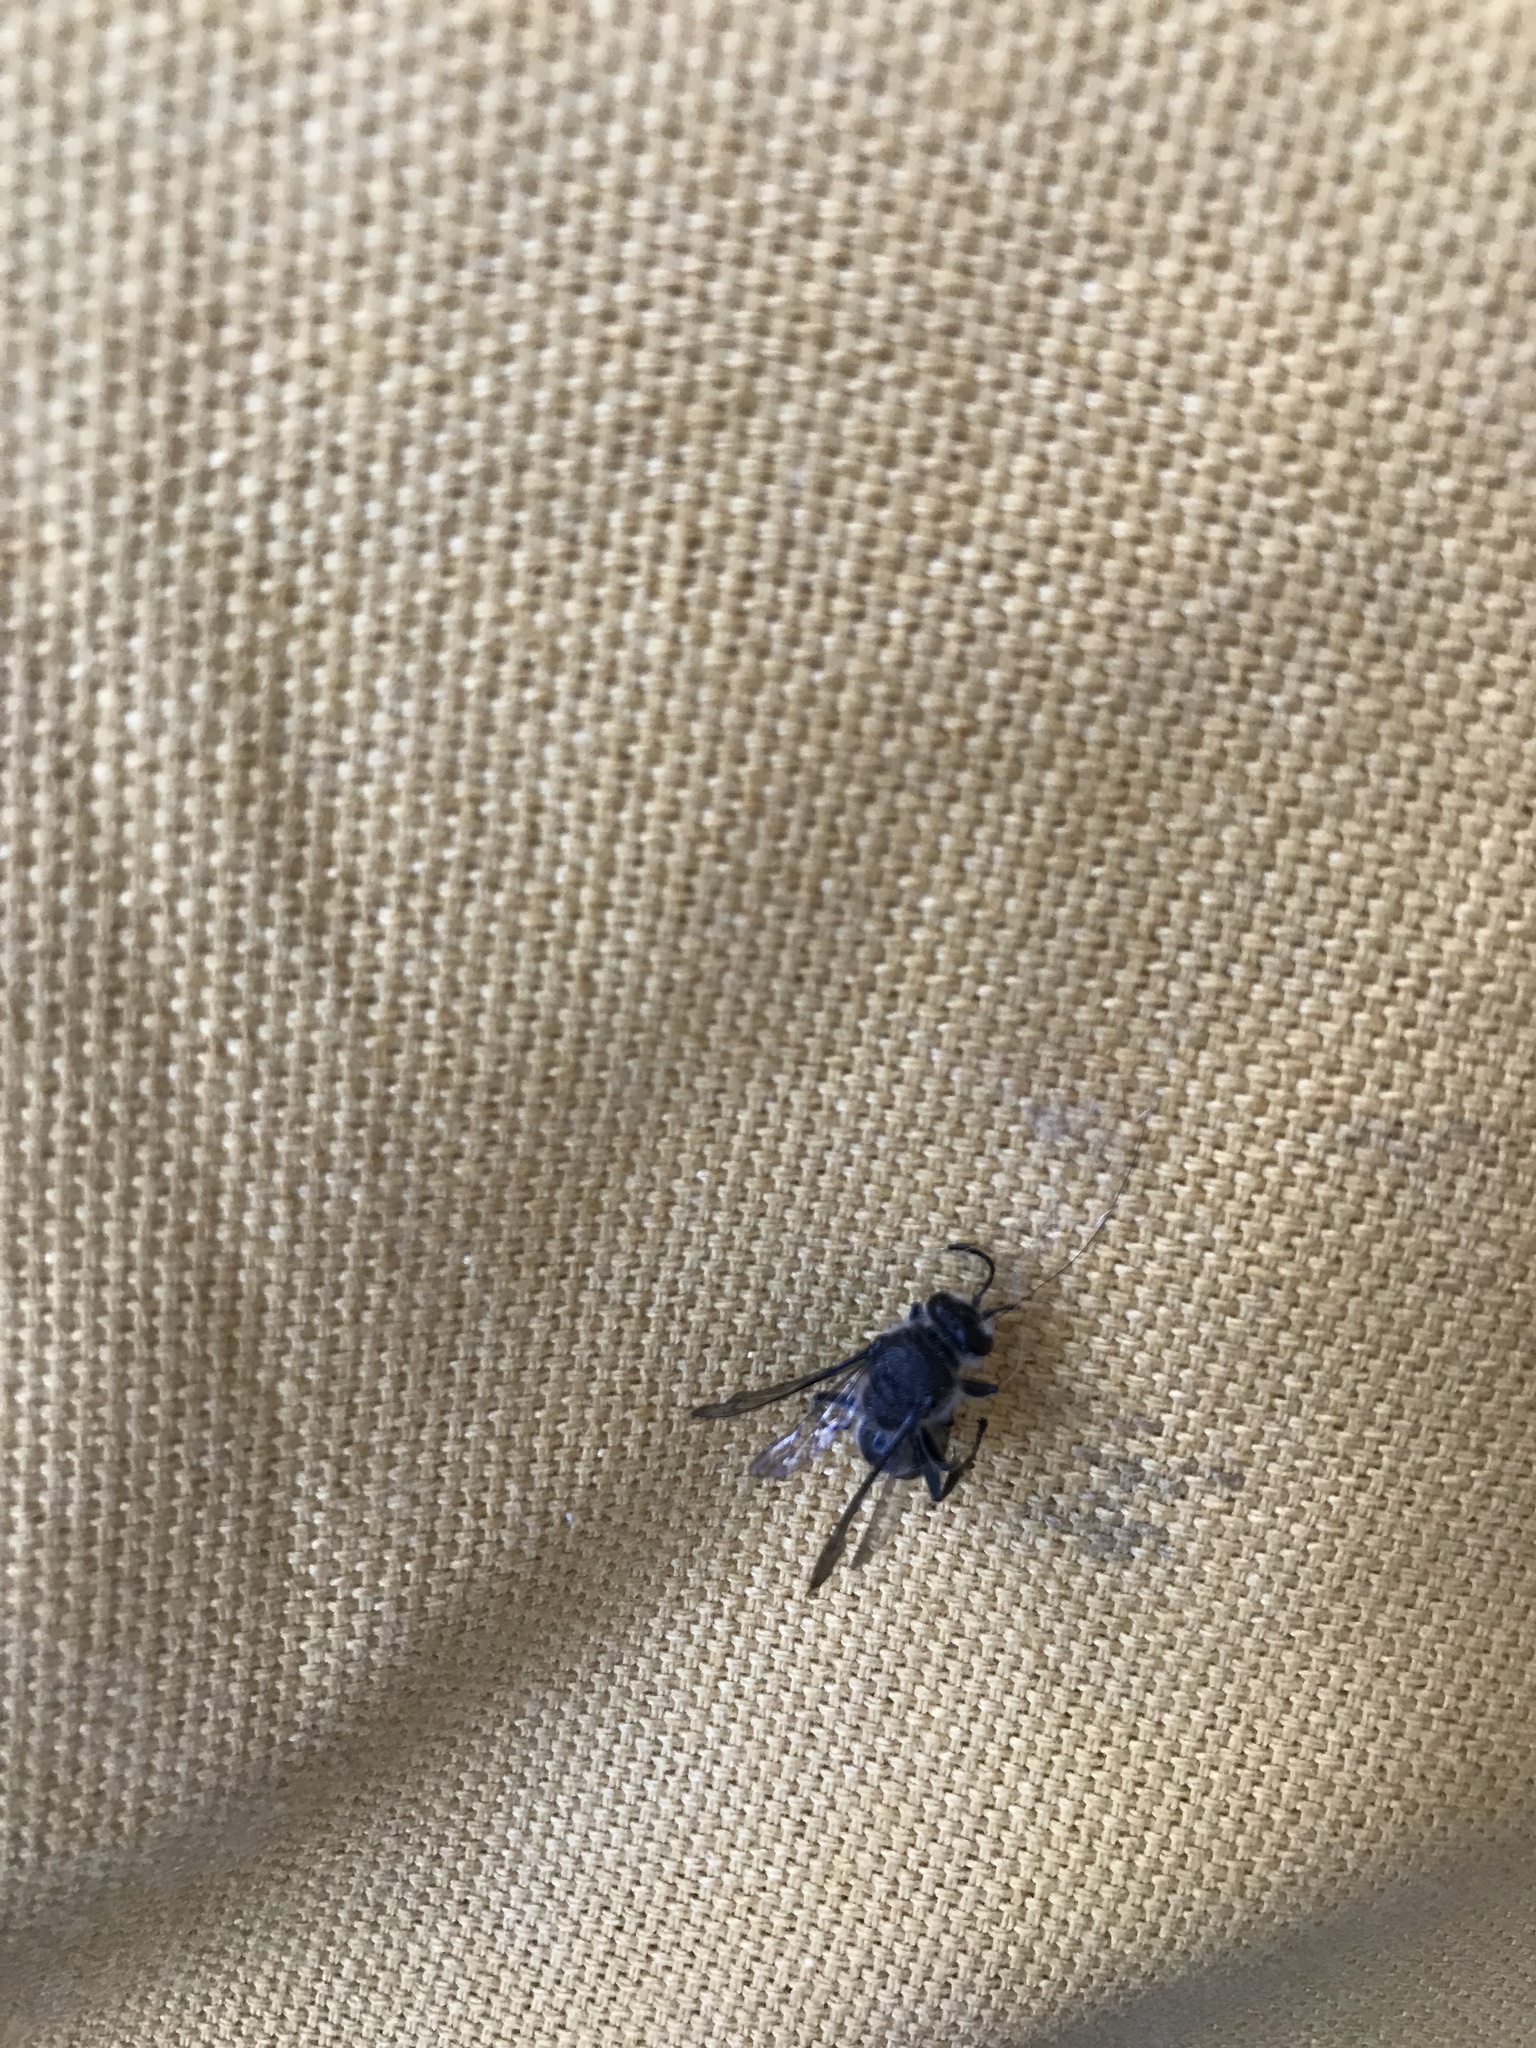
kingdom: Animalia
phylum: Arthropoda
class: Insecta
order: Hymenoptera
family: Crabronidae
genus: Pison
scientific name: Pison spinolae
